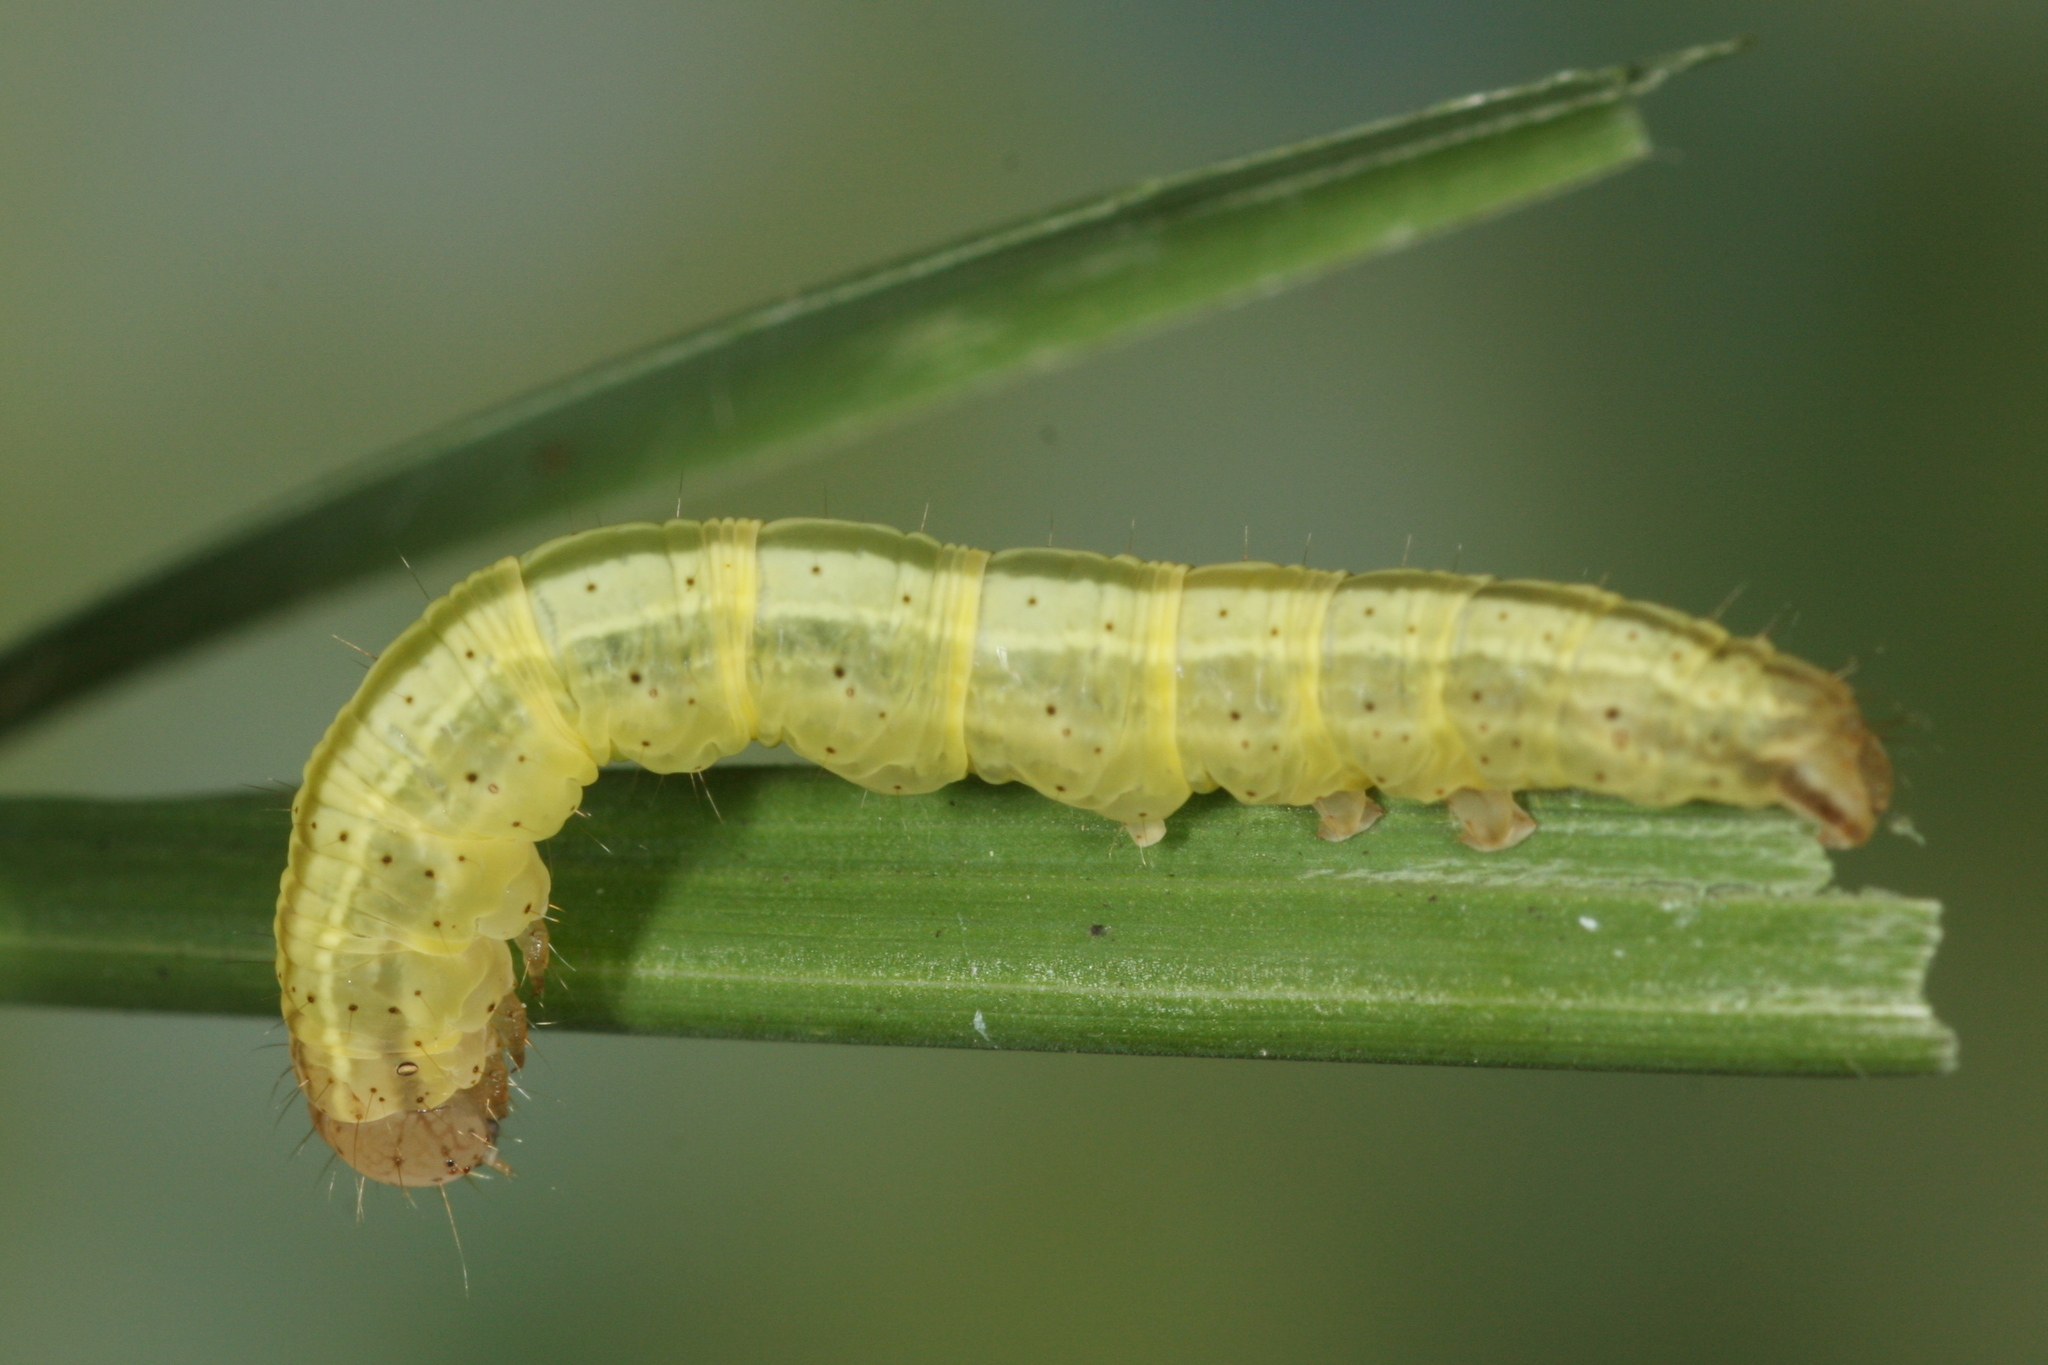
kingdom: Animalia
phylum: Arthropoda
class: Insecta
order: Lepidoptera
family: Noctuidae
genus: Deltote
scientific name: Deltote pygarga
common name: Marbled white spot
